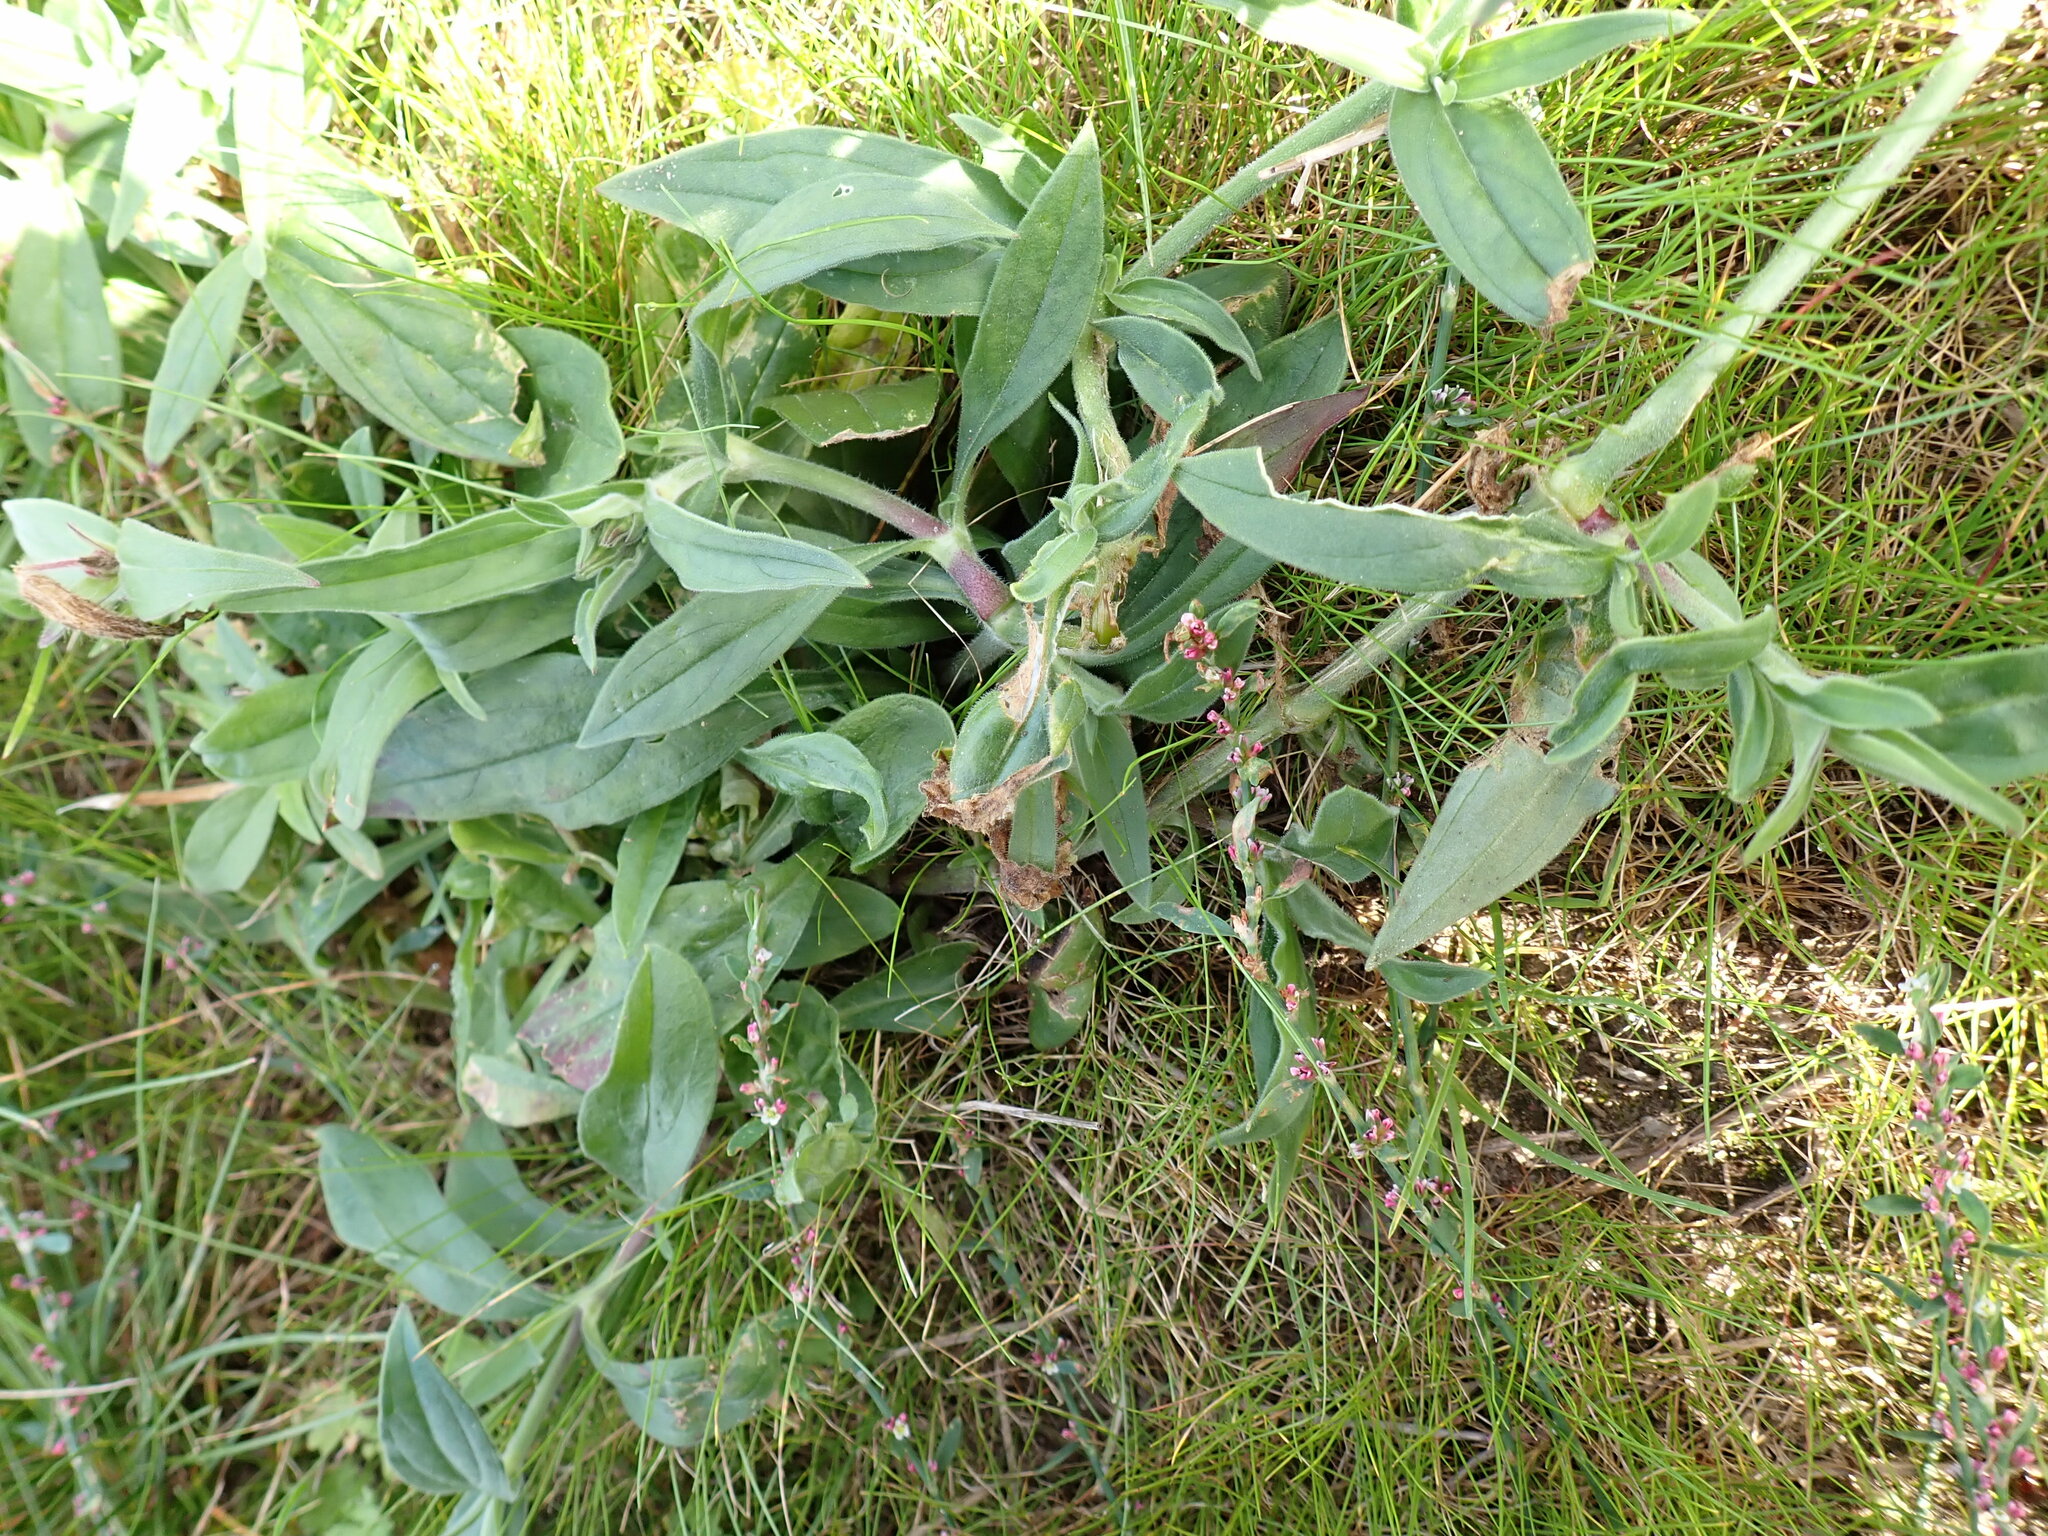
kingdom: Plantae
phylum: Tracheophyta
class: Magnoliopsida
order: Caryophyllales
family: Caryophyllaceae
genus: Silene
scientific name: Silene latifolia
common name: White campion
